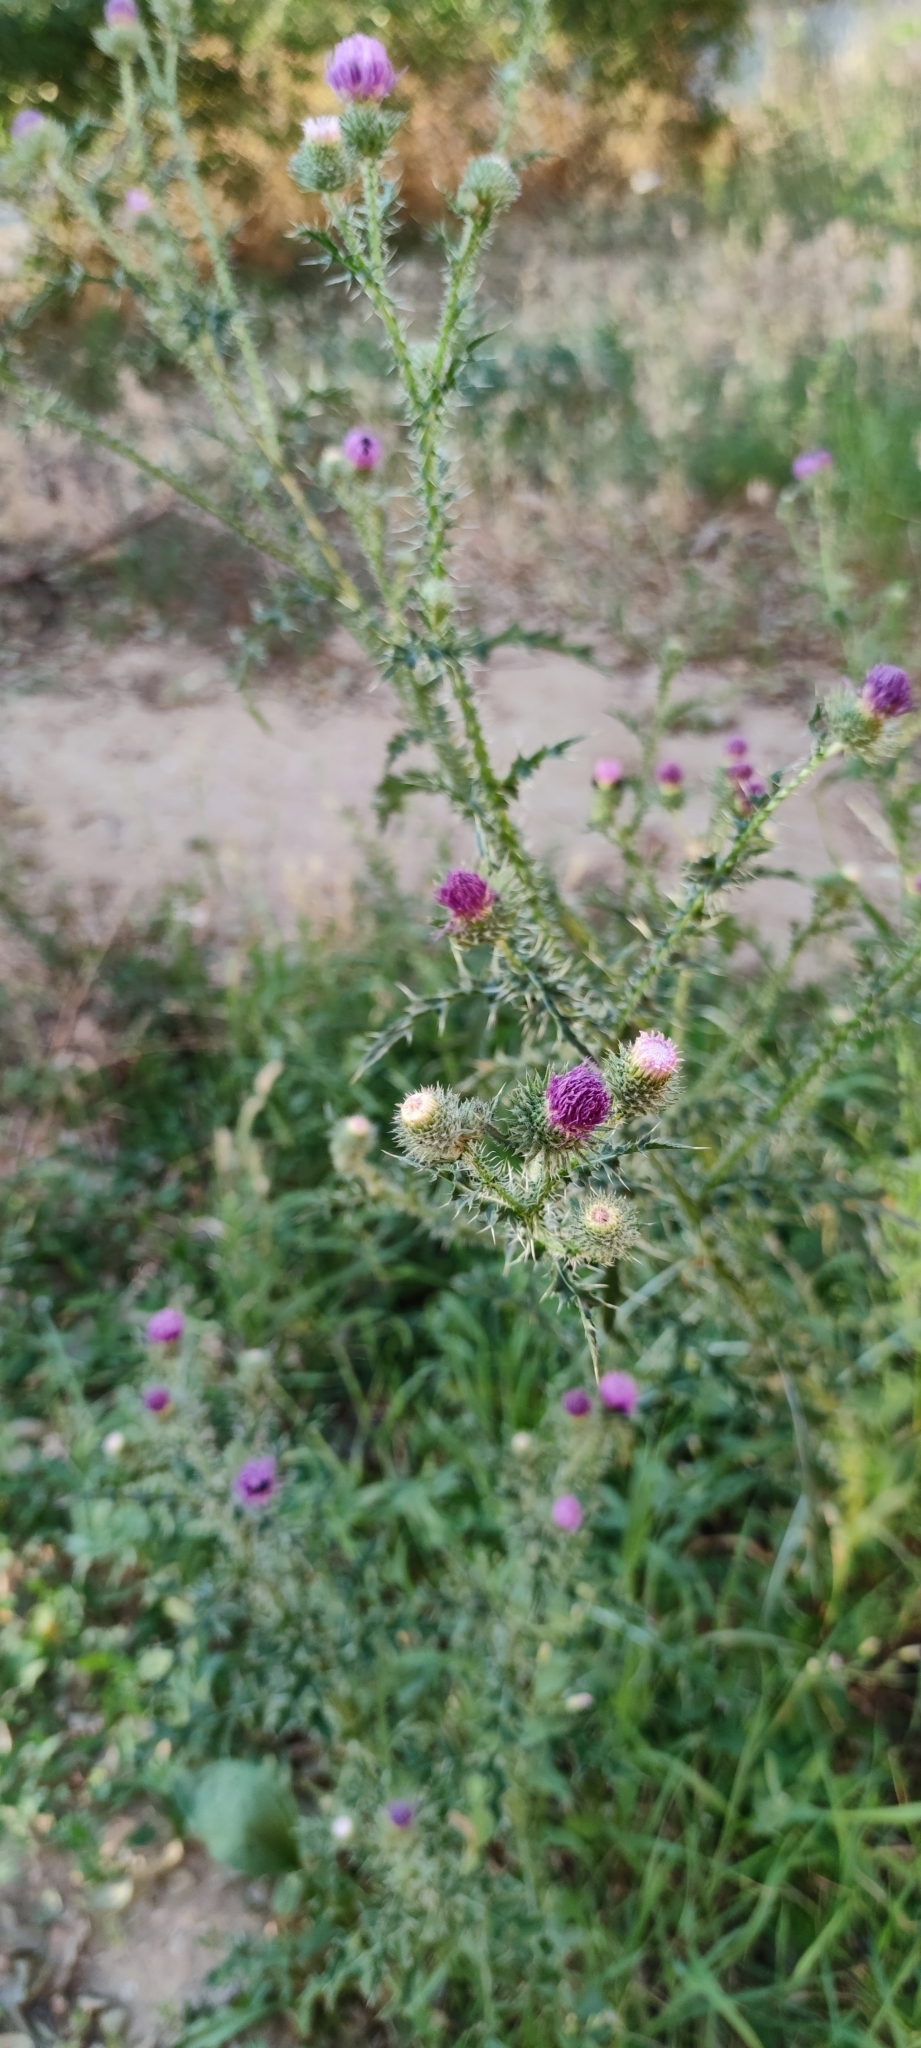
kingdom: Plantae
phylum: Tracheophyta
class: Magnoliopsida
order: Asterales
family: Asteraceae
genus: Carduus
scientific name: Carduus acanthoides
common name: Plumeless thistle
